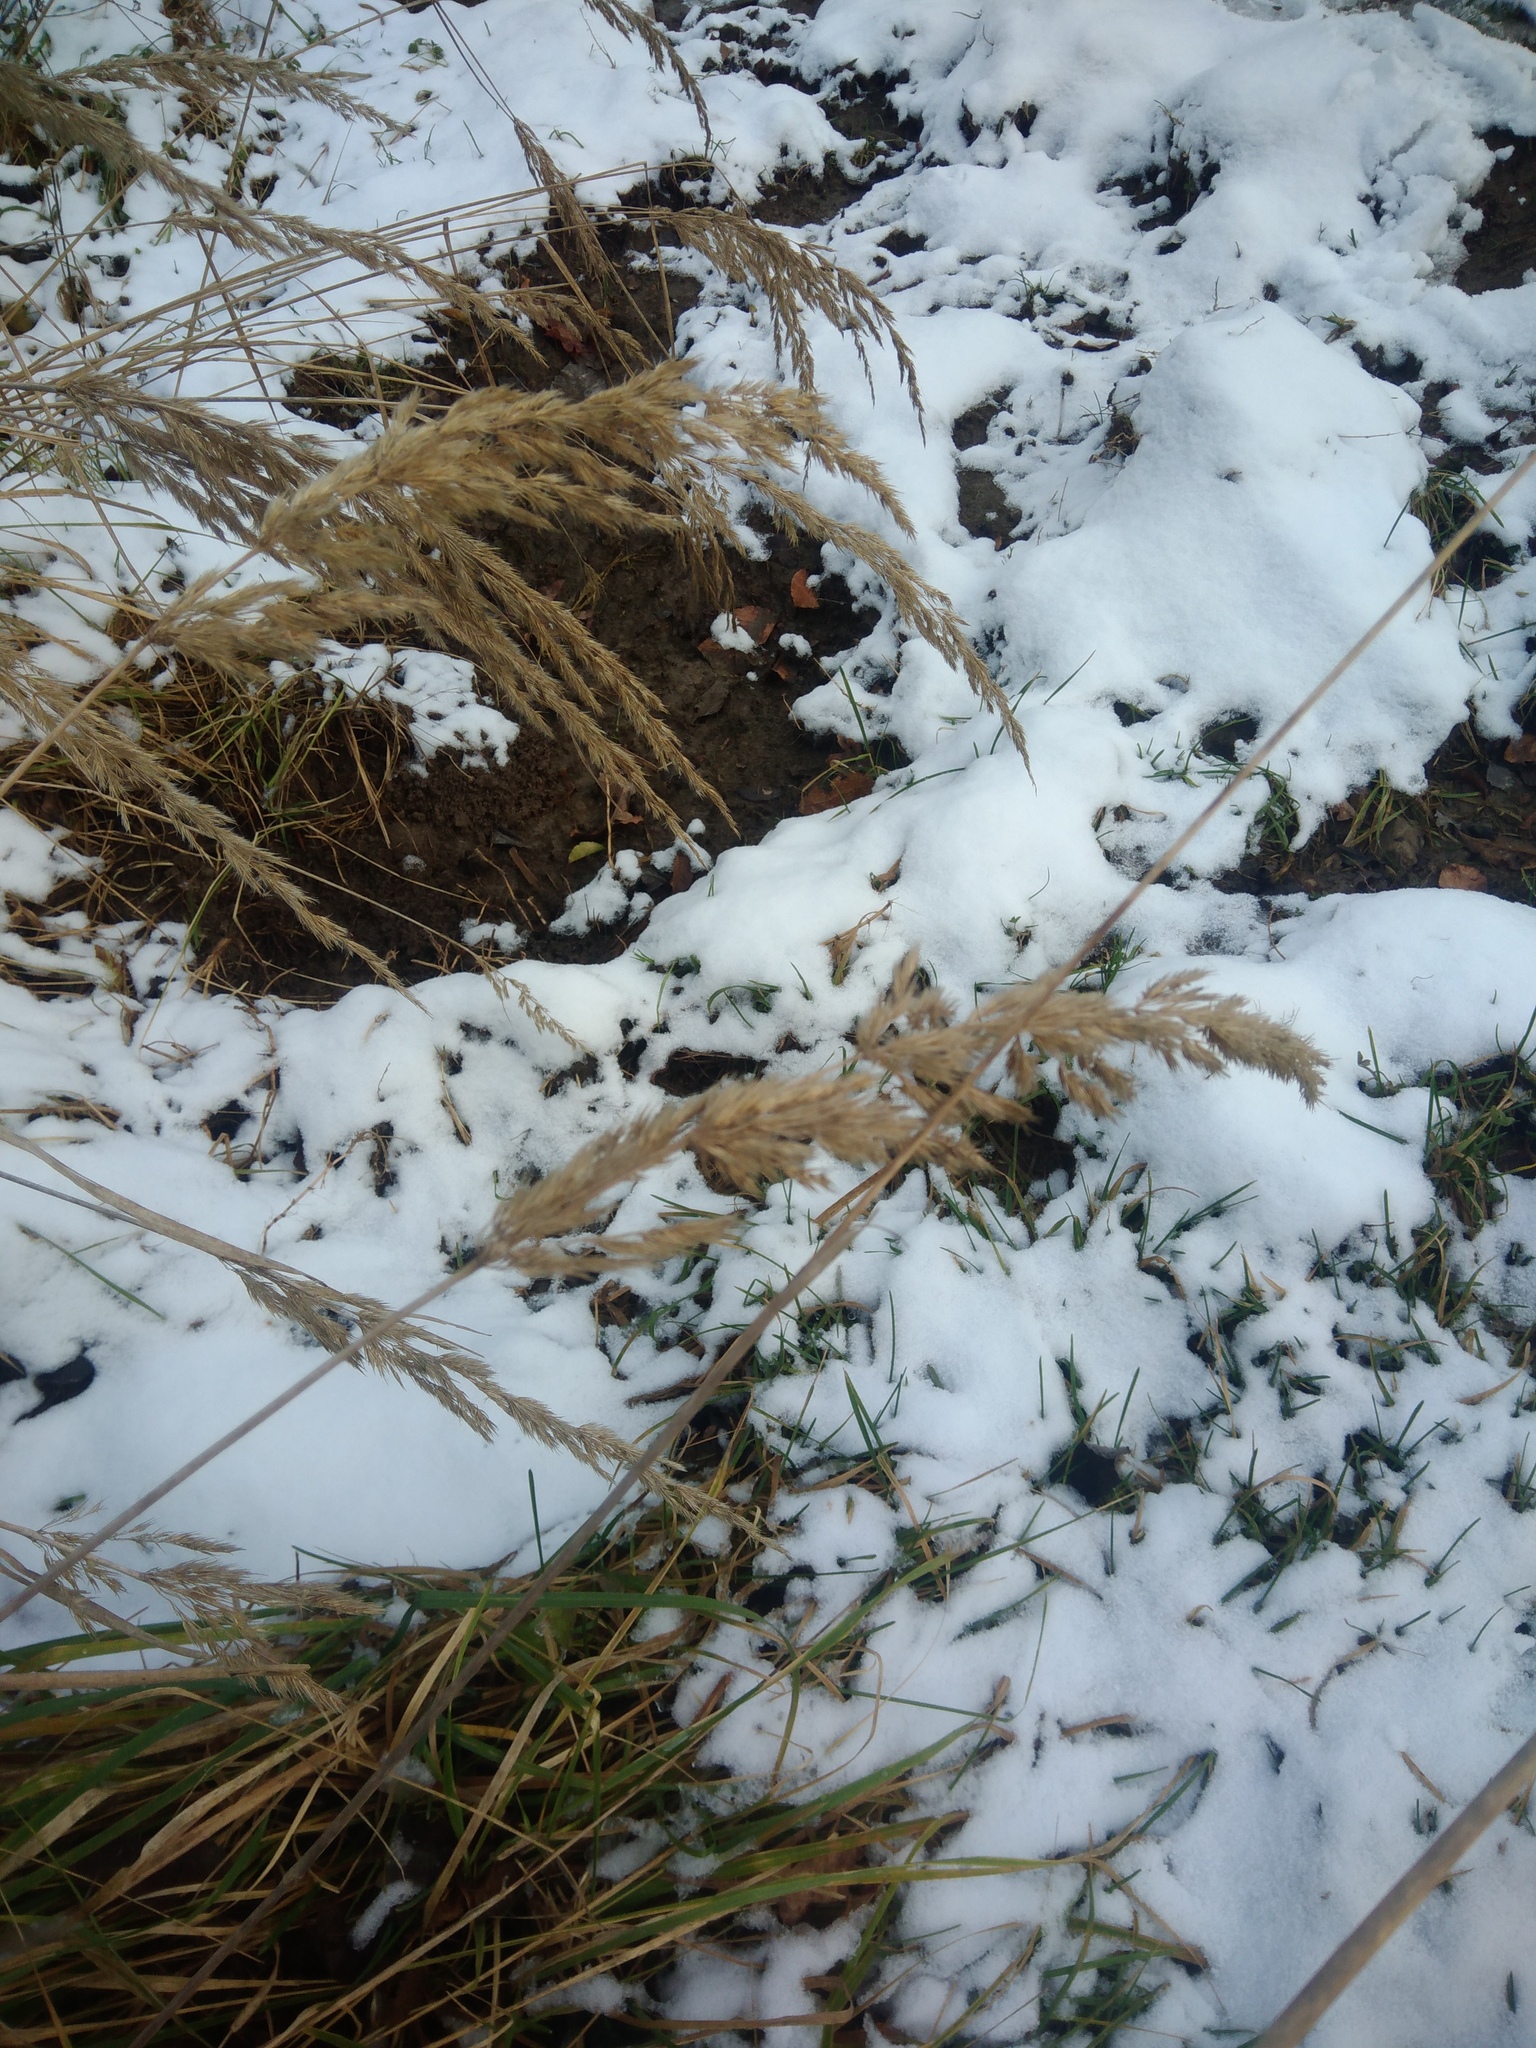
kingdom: Plantae
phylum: Tracheophyta
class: Liliopsida
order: Poales
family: Poaceae
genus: Calamagrostis
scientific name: Calamagrostis epigejos
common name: Wood small-reed
